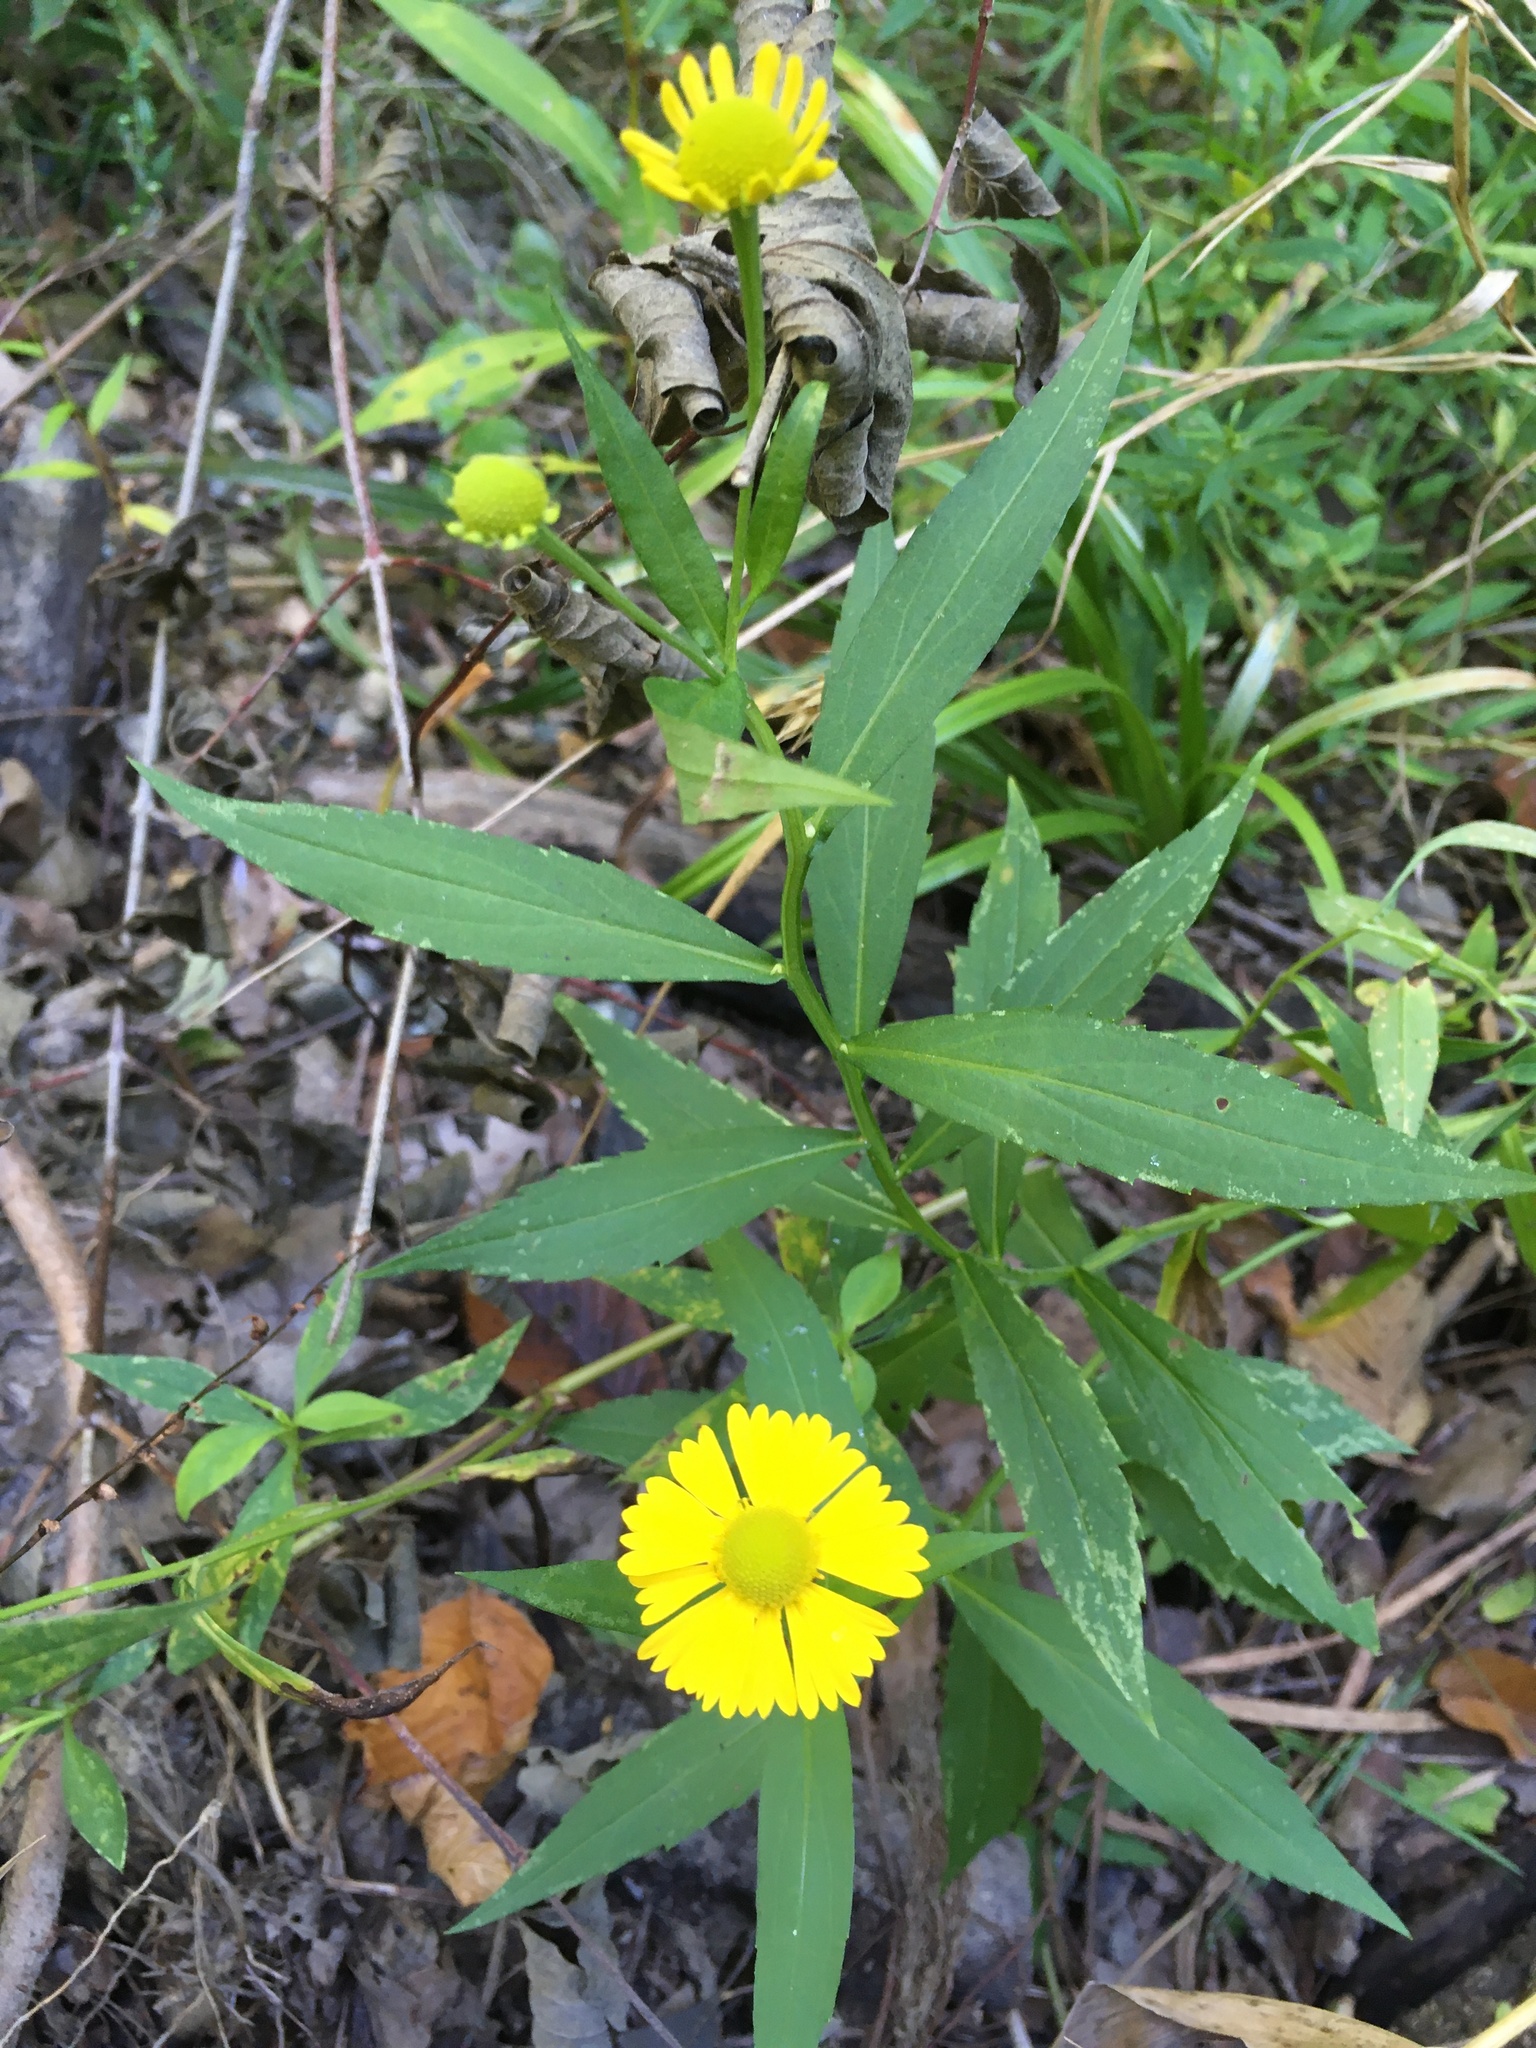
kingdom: Plantae
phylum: Tracheophyta
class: Magnoliopsida
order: Asterales
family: Asteraceae
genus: Helenium
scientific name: Helenium autumnale
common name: Sneezeweed
